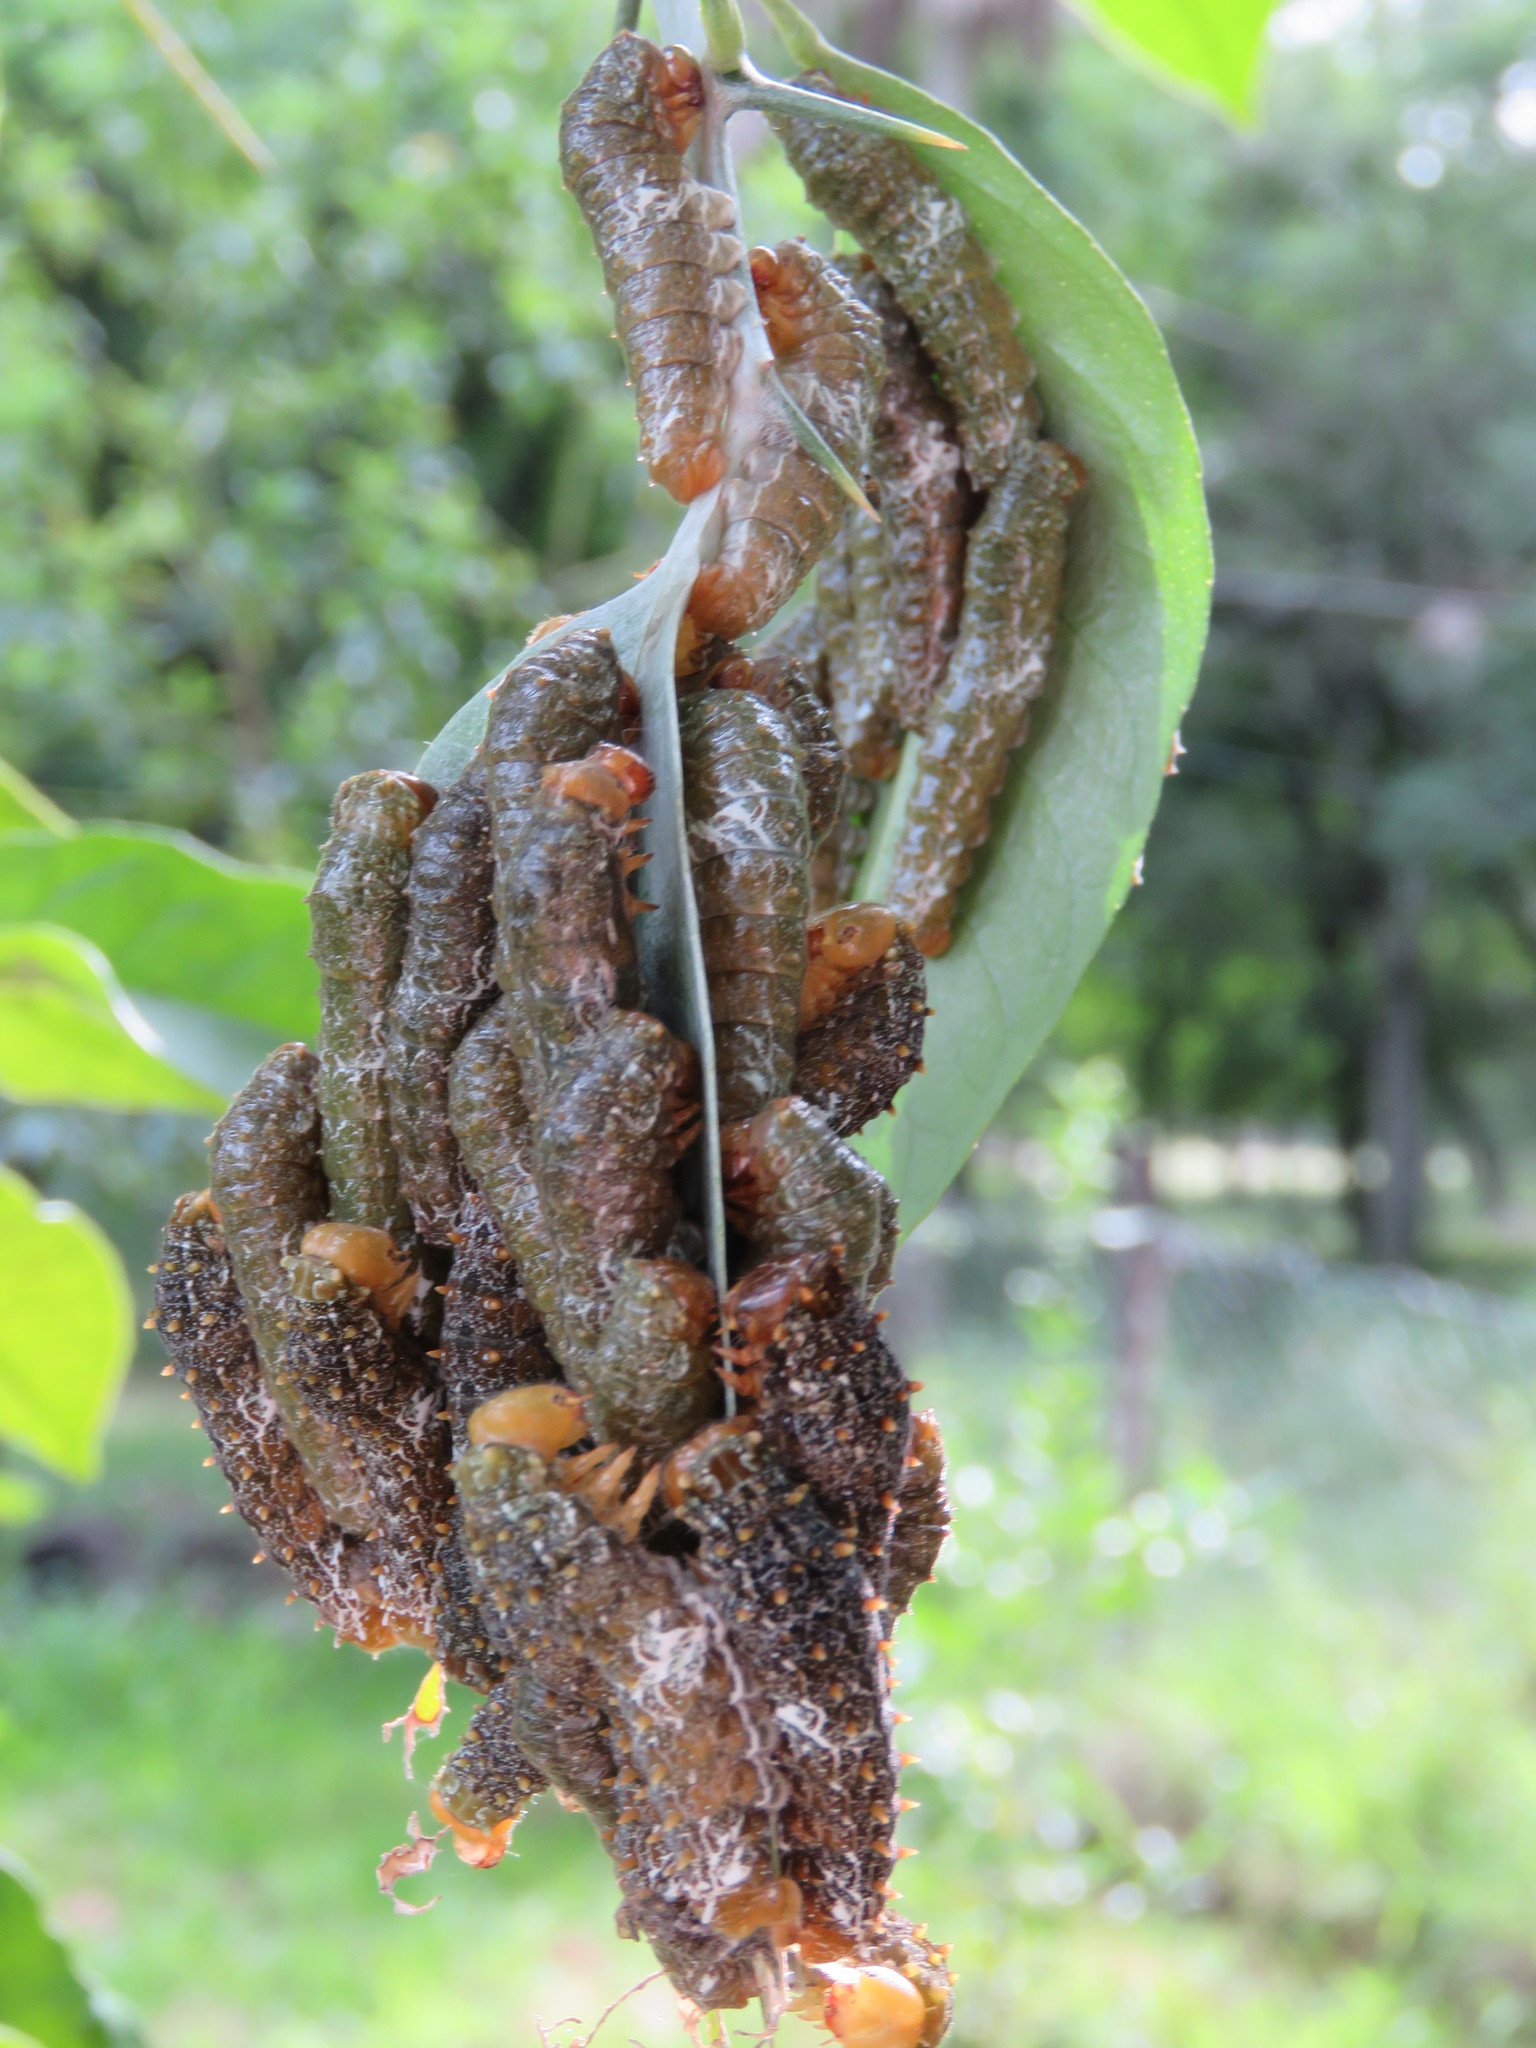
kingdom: Animalia
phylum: Arthropoda
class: Insecta
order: Lepidoptera
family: Papilionidae
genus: Papilio
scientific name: Papilio anchisiades
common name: Idaes swallowtail
